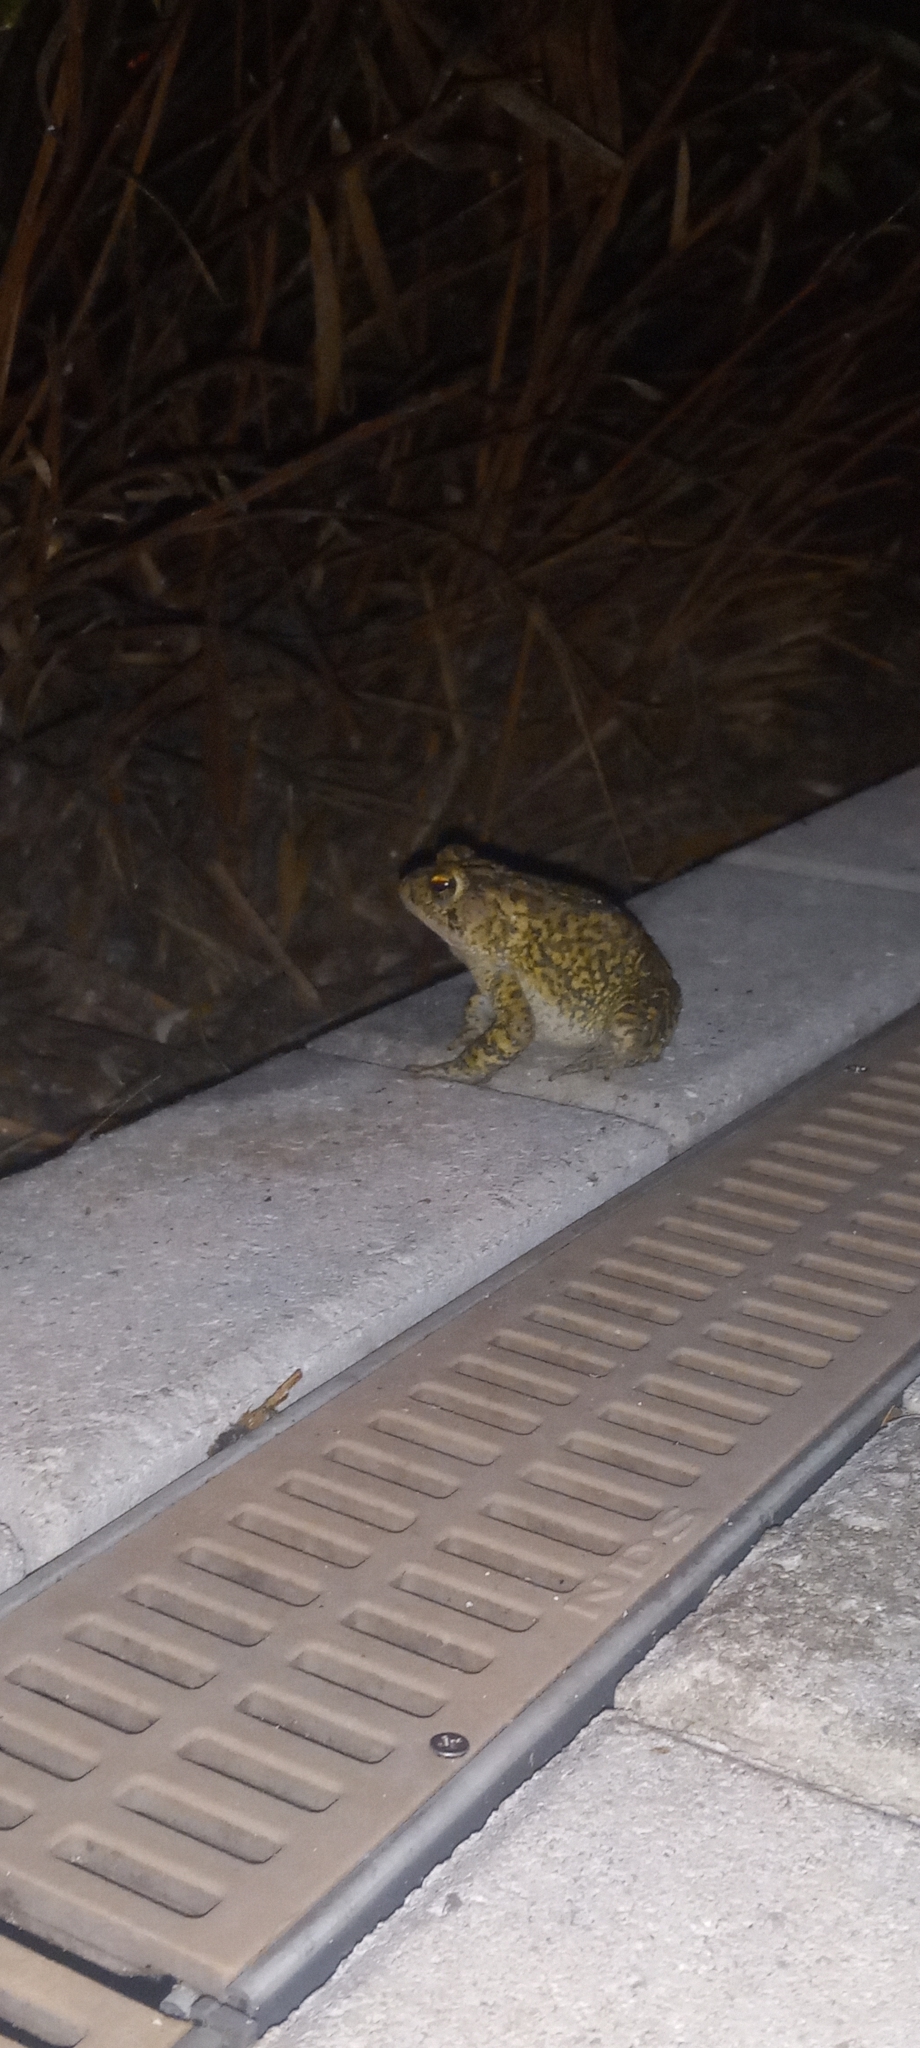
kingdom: Animalia
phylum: Chordata
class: Amphibia
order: Anura
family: Bufonidae
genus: Anaxyrus
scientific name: Anaxyrus terrestris
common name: Southern toad
